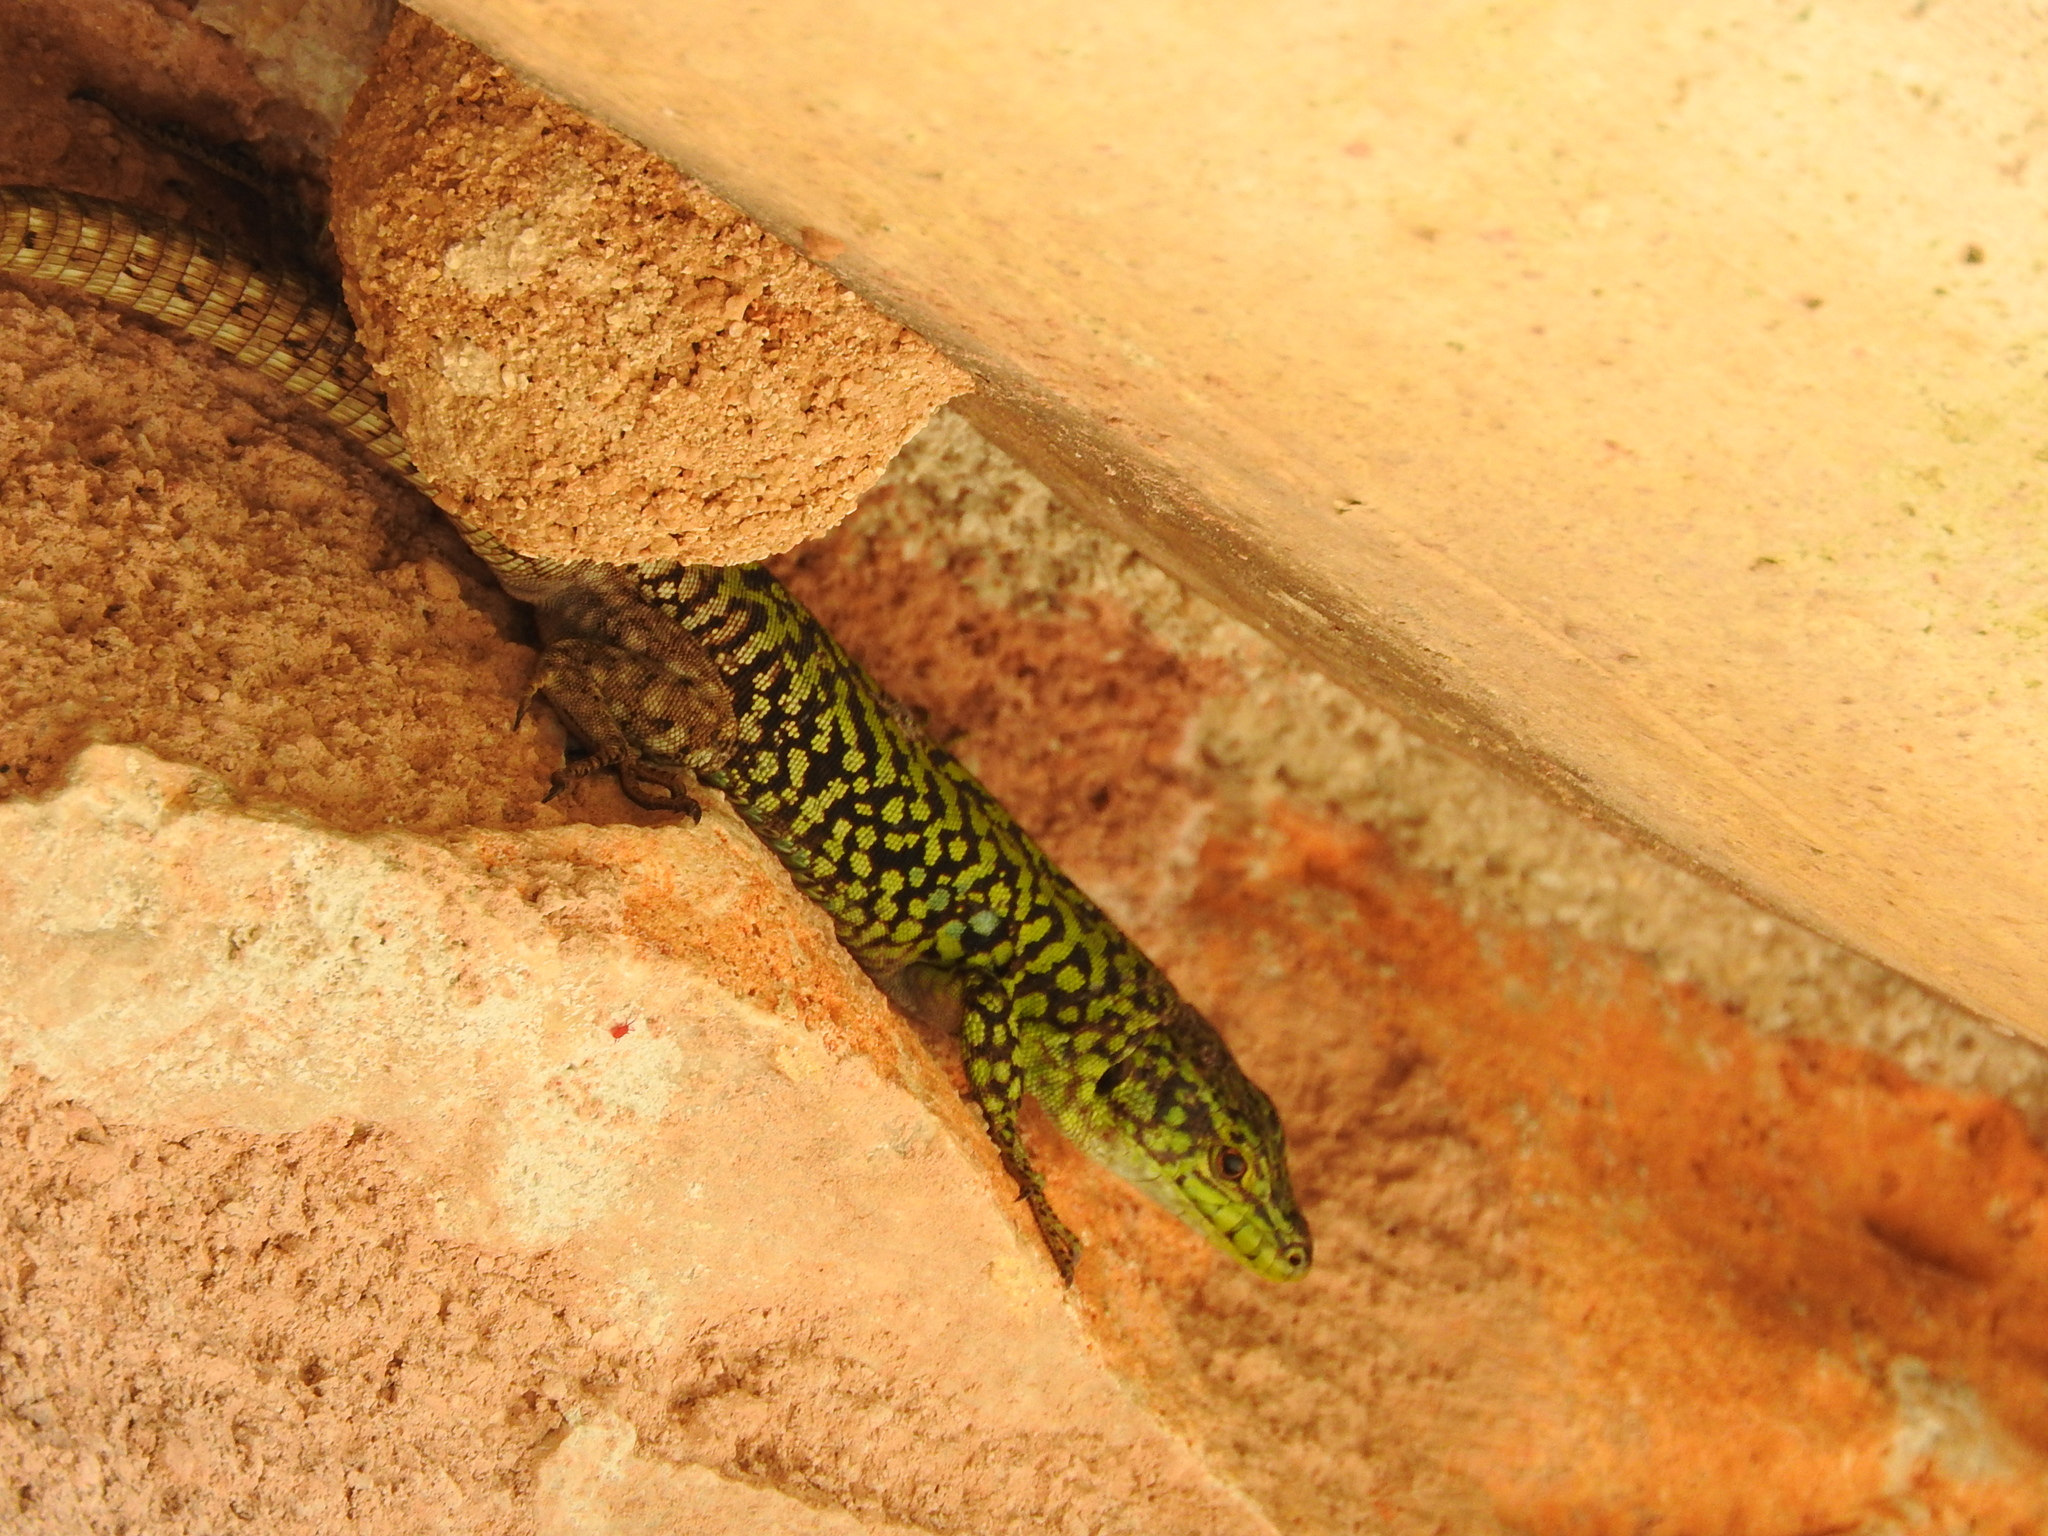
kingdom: Animalia
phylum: Chordata
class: Squamata
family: Lacertidae
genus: Podarcis
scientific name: Podarcis siculus
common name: Italian wall lizard
